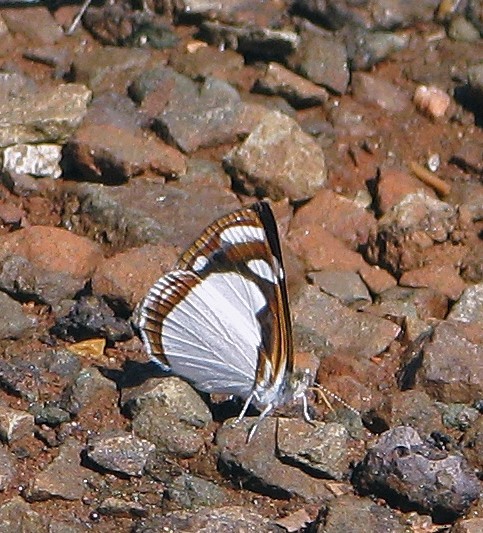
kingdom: Animalia
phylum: Arthropoda
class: Insecta
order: Lepidoptera
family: Nymphalidae
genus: Dynamine
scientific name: Dynamine agacles
